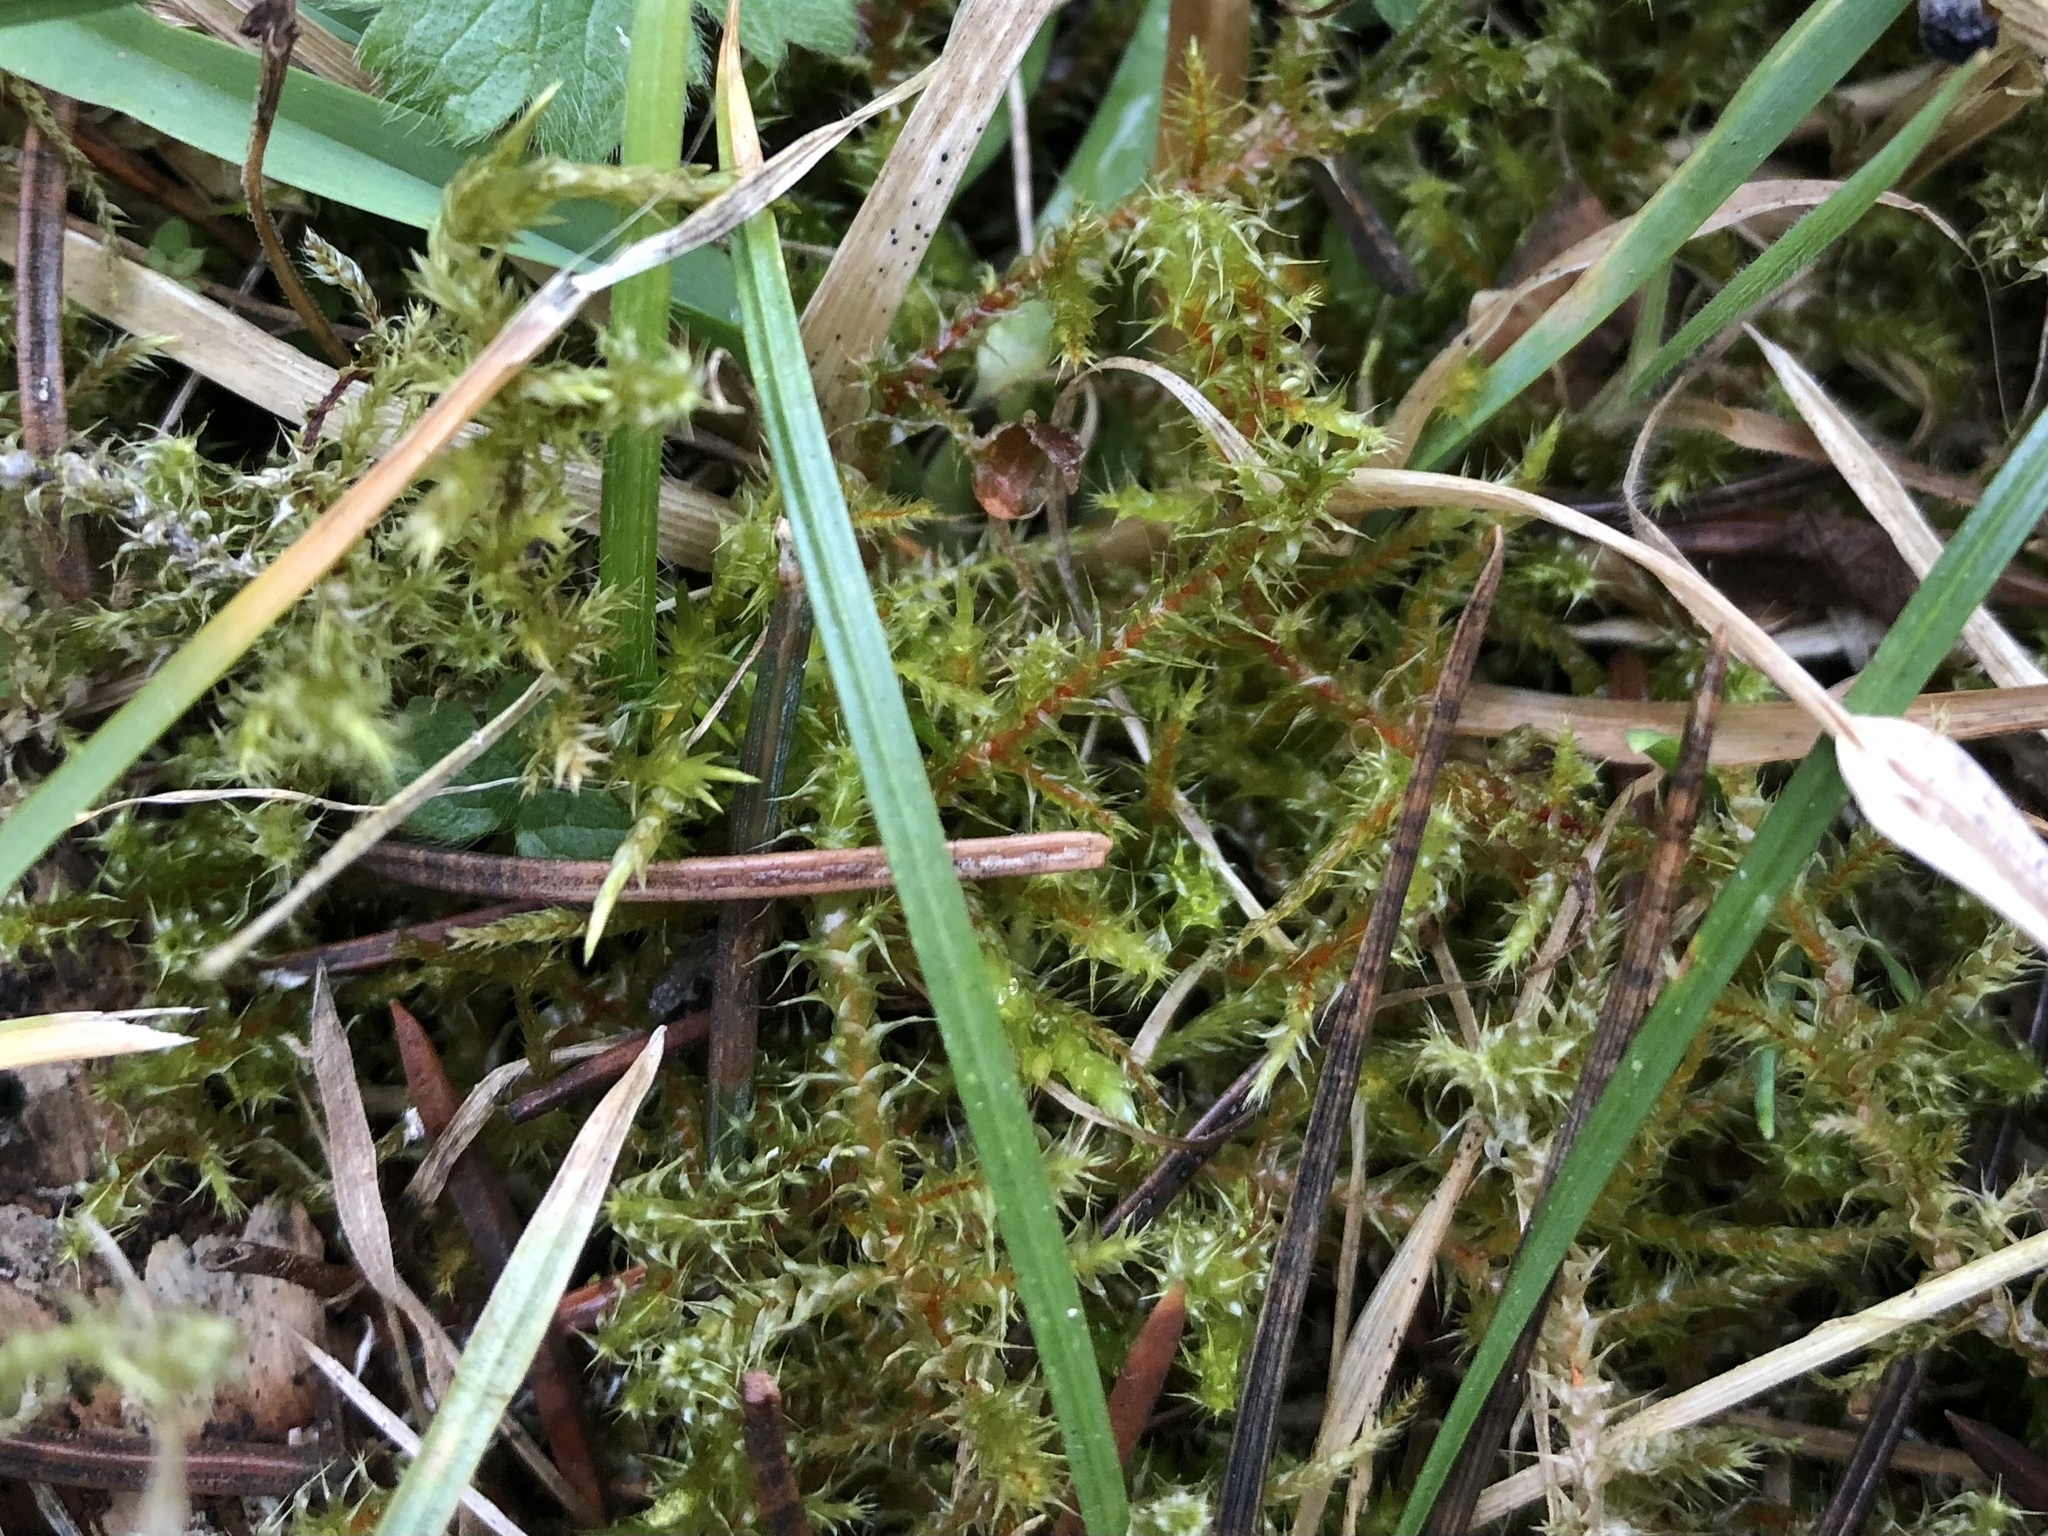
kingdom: Plantae
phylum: Bryophyta
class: Bryopsida
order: Hypnales
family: Hylocomiaceae
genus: Rhytidiadelphus
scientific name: Rhytidiadelphus squarrosus
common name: Springy turf-moss
